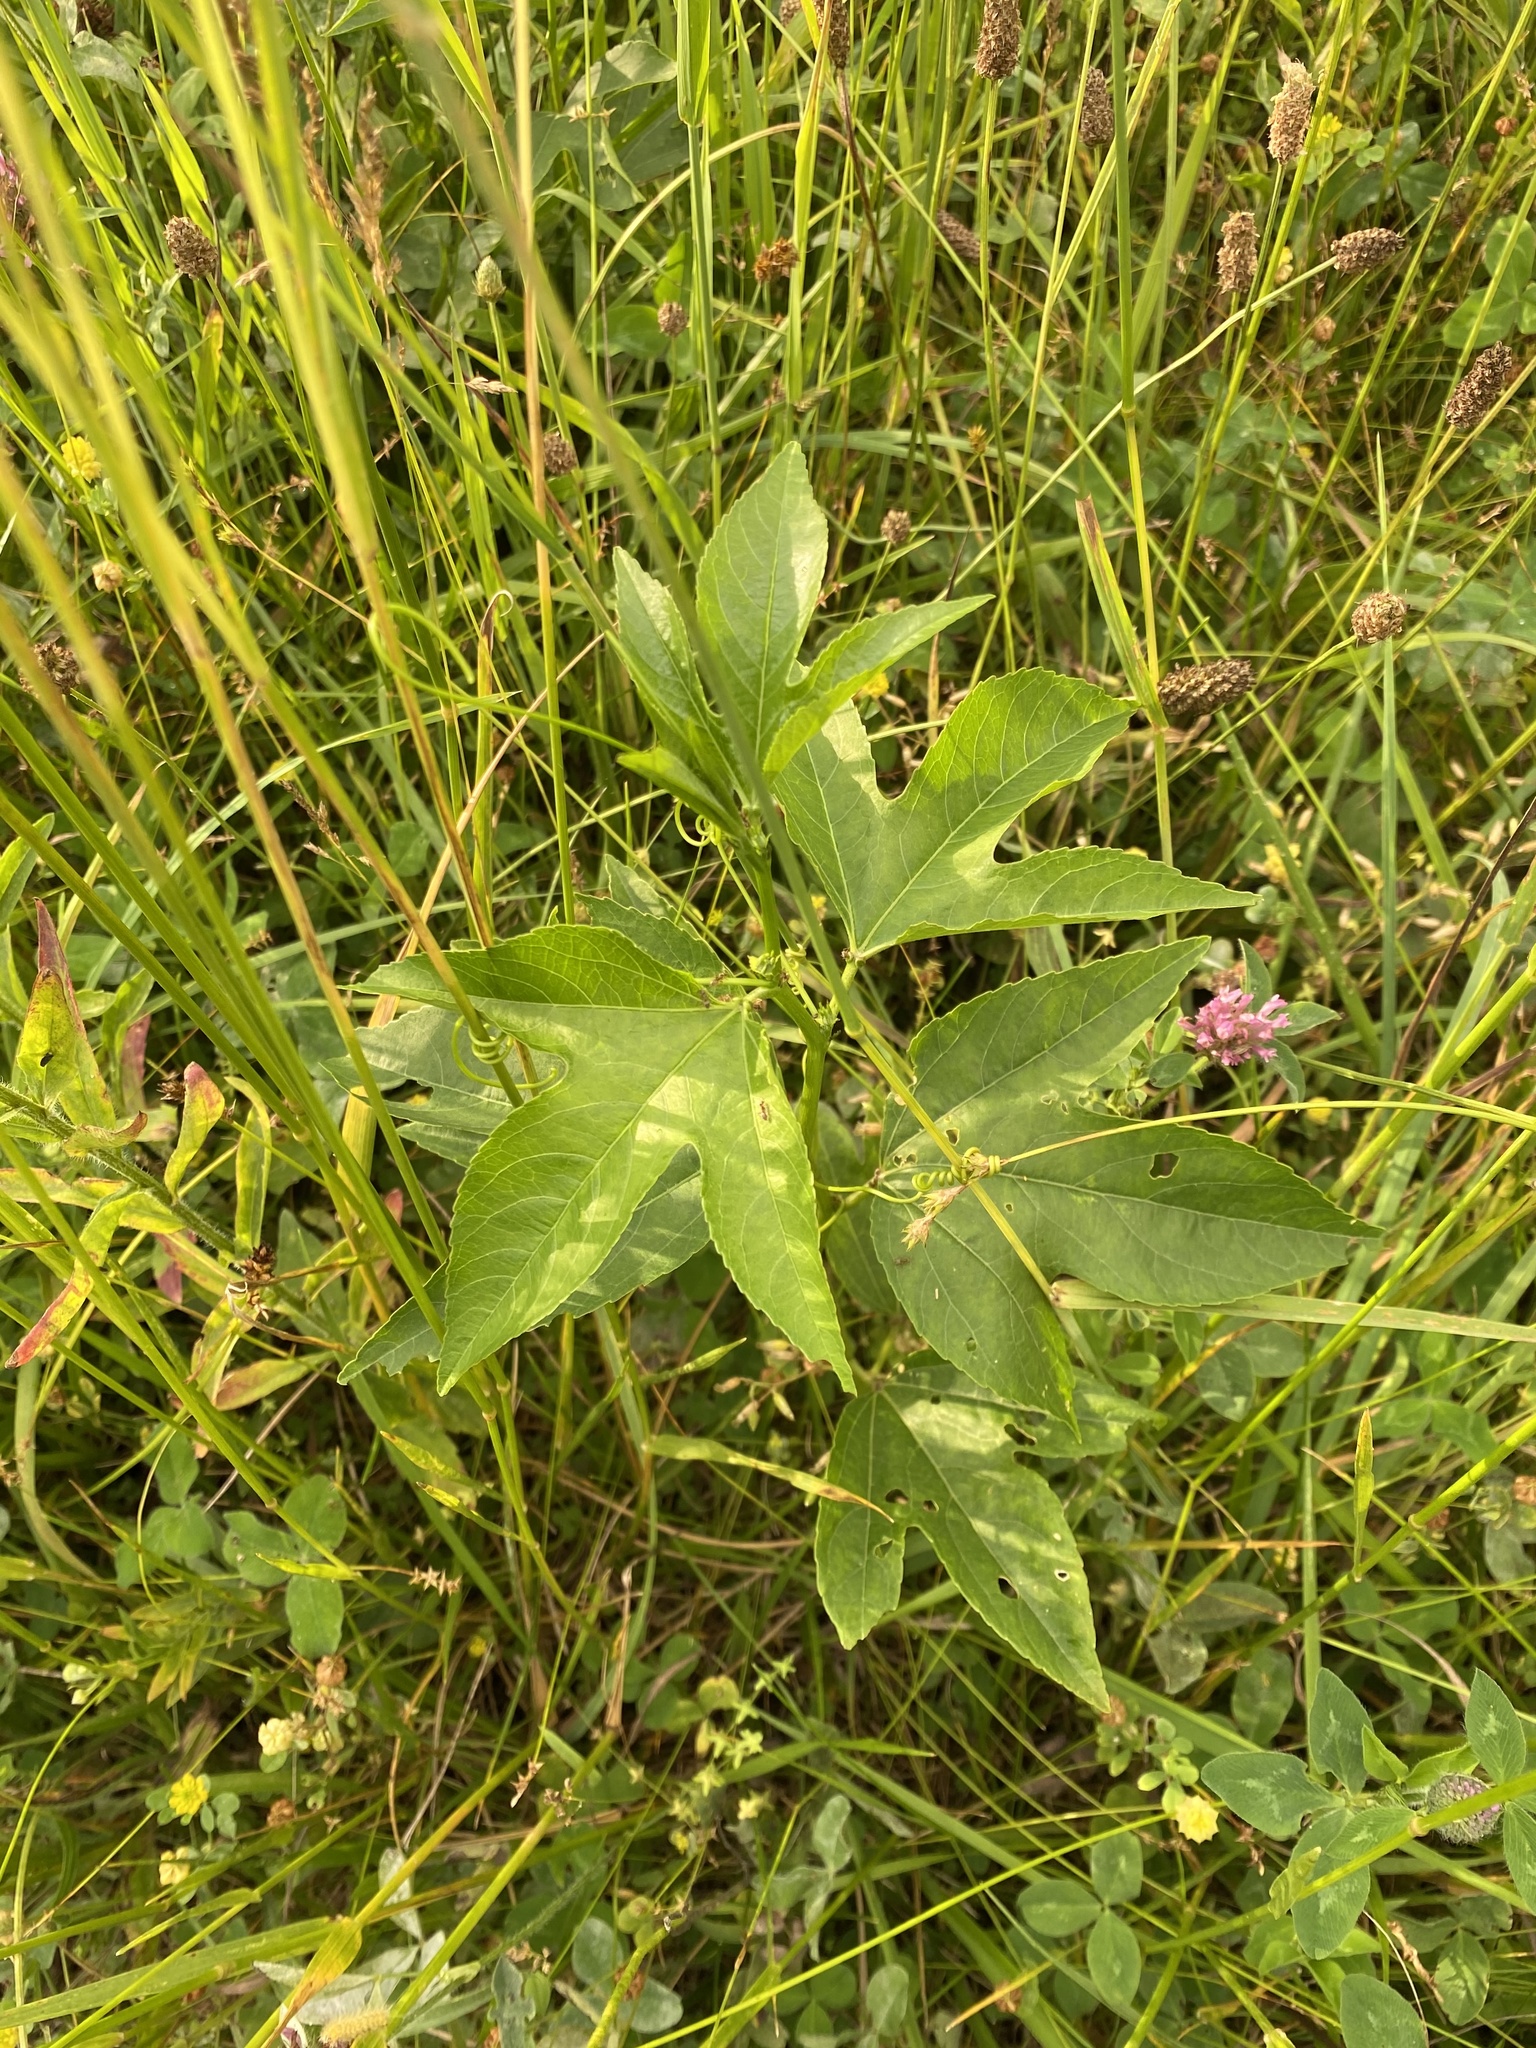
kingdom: Plantae
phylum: Tracheophyta
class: Magnoliopsida
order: Malpighiales
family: Passifloraceae
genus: Passiflora
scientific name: Passiflora incarnata
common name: Apricot-vine
